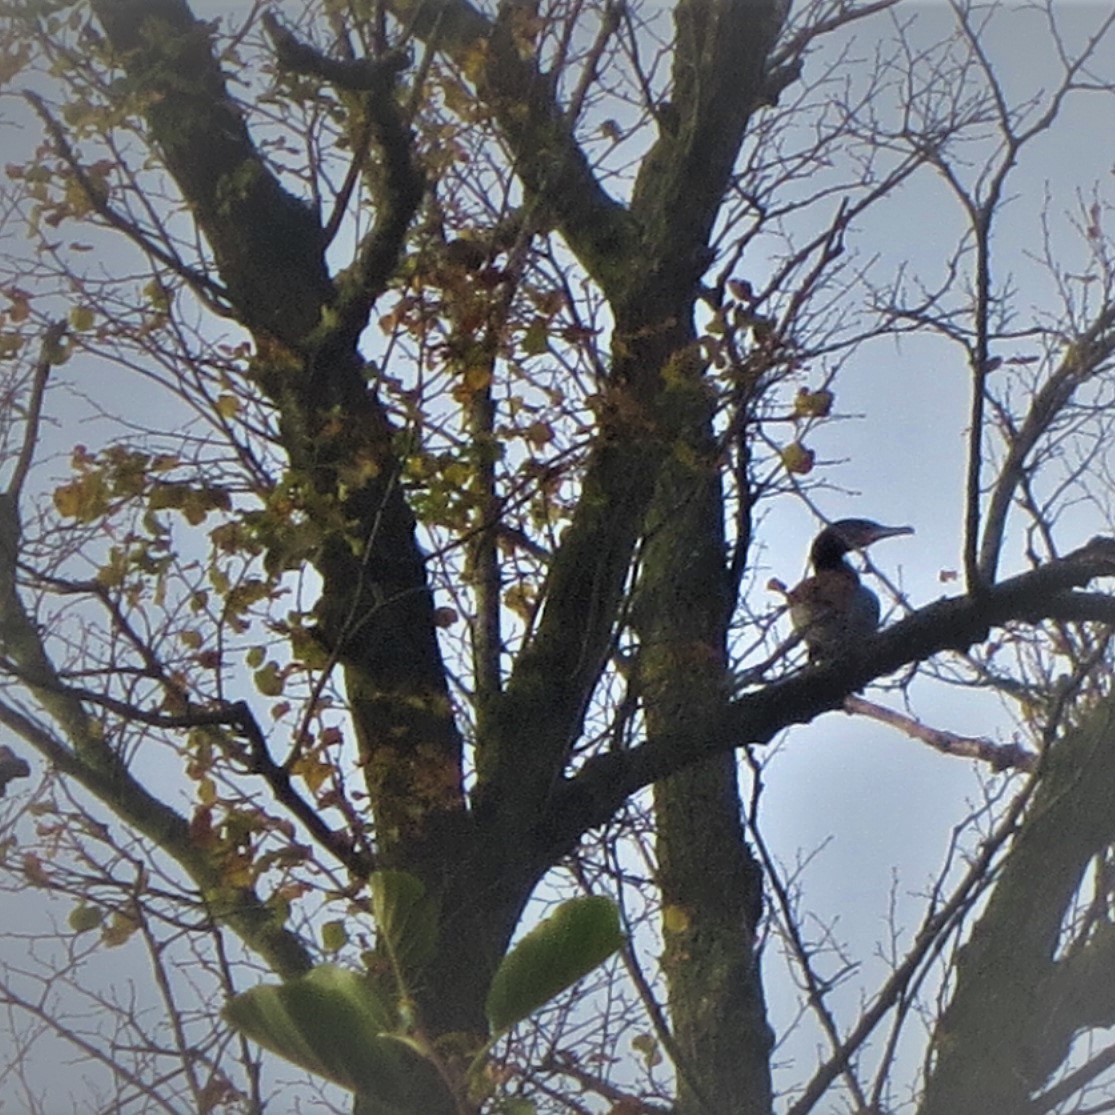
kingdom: Animalia
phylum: Chordata
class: Aves
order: Suliformes
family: Phalacrocoracidae
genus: Phalacrocorax
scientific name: Phalacrocorax carbo
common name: Great cormorant
